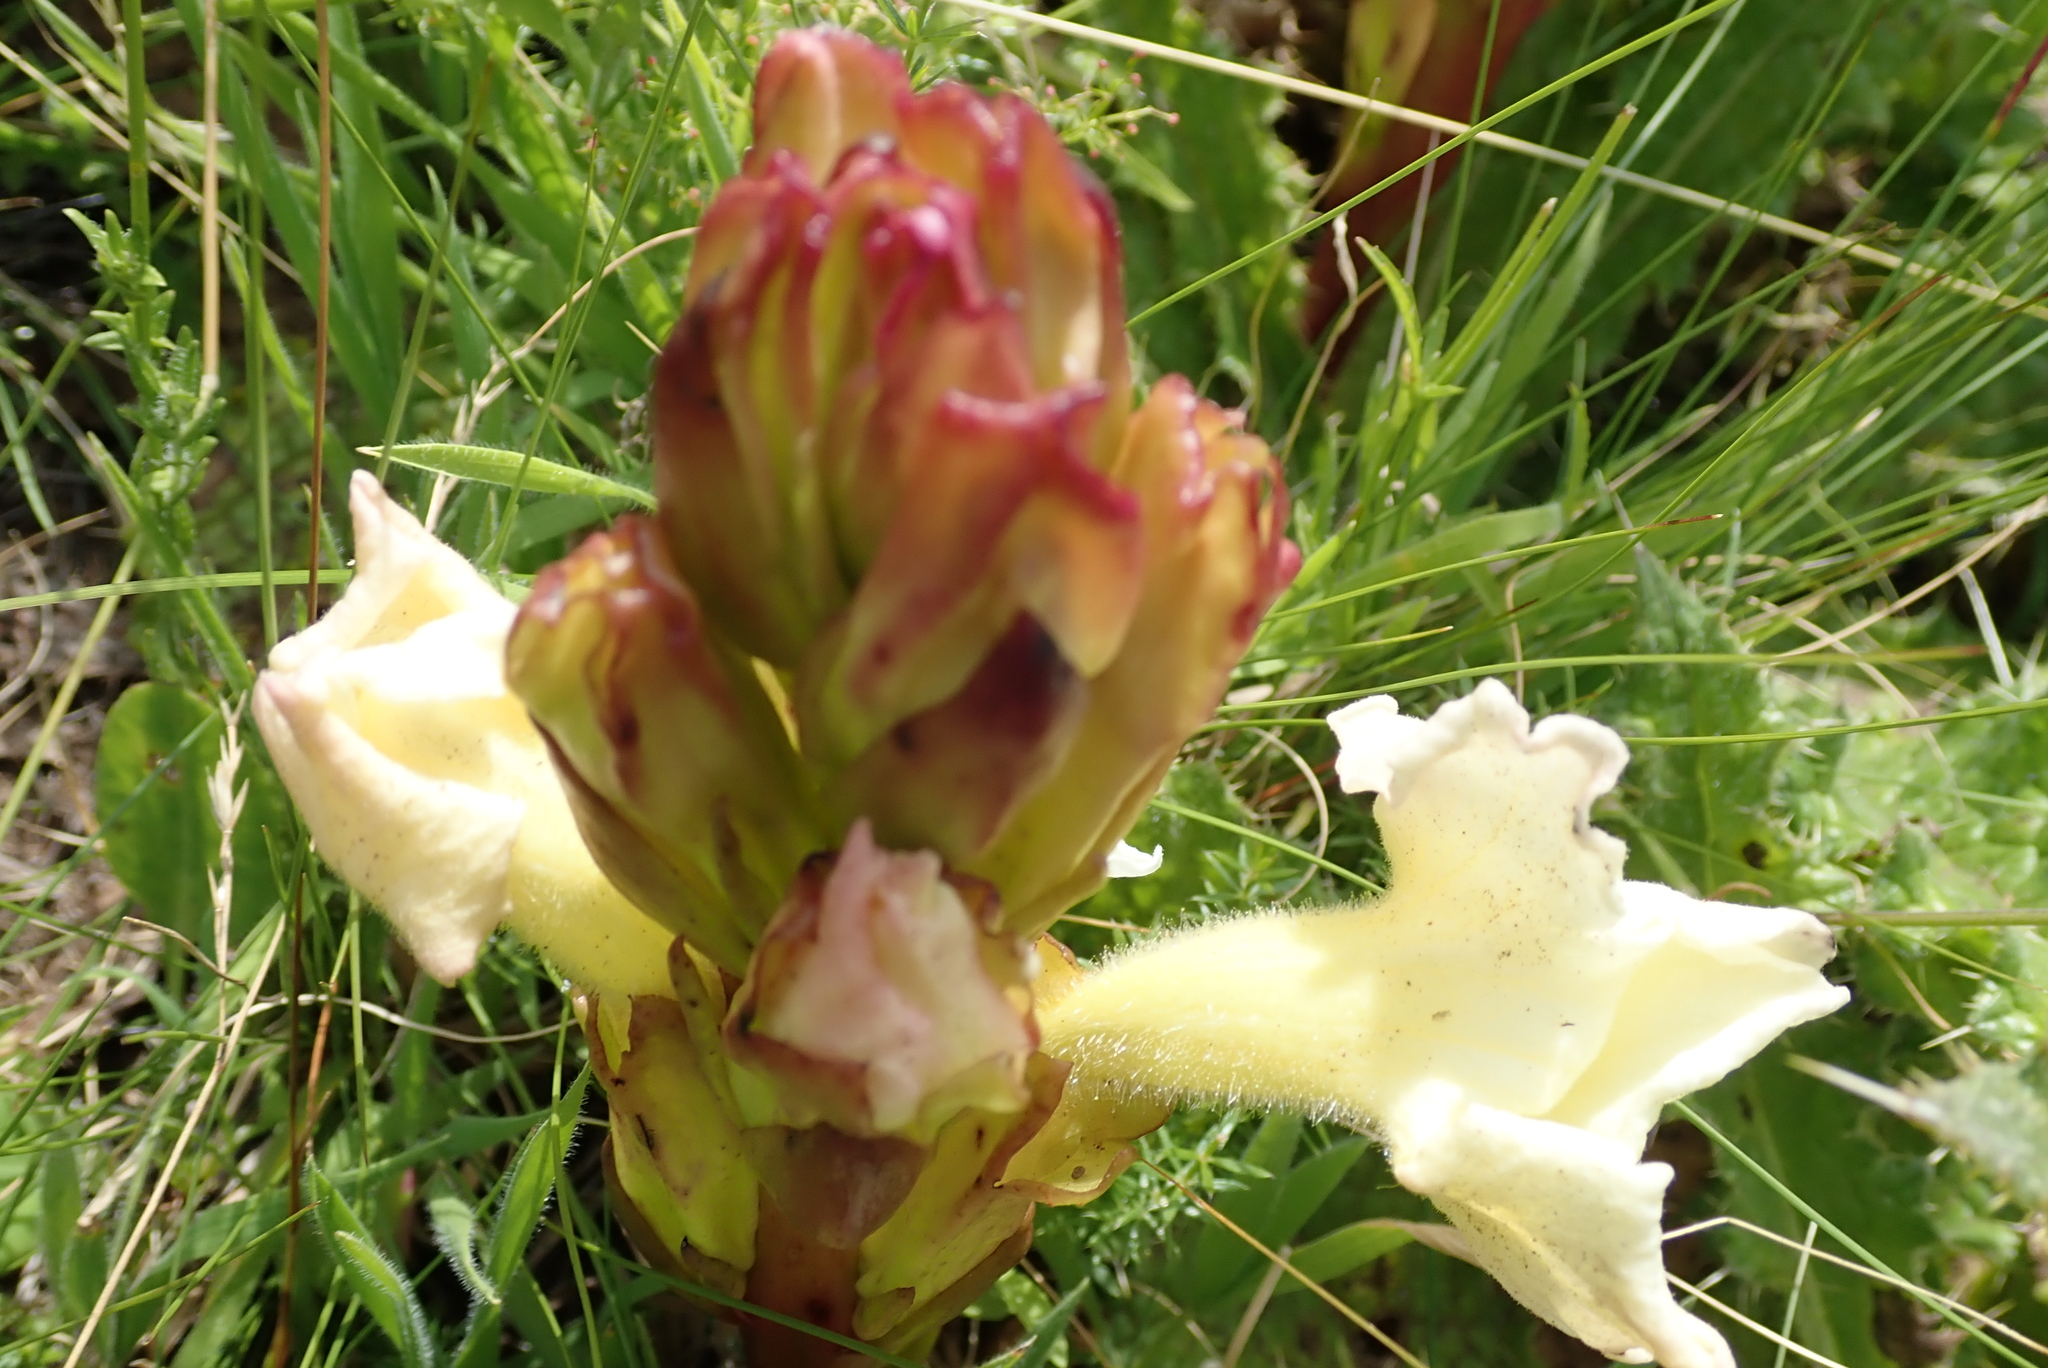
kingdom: Plantae
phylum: Tracheophyta
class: Magnoliopsida
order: Lamiales
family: Orobanchaceae
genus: Harveya
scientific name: Harveya speciosa
